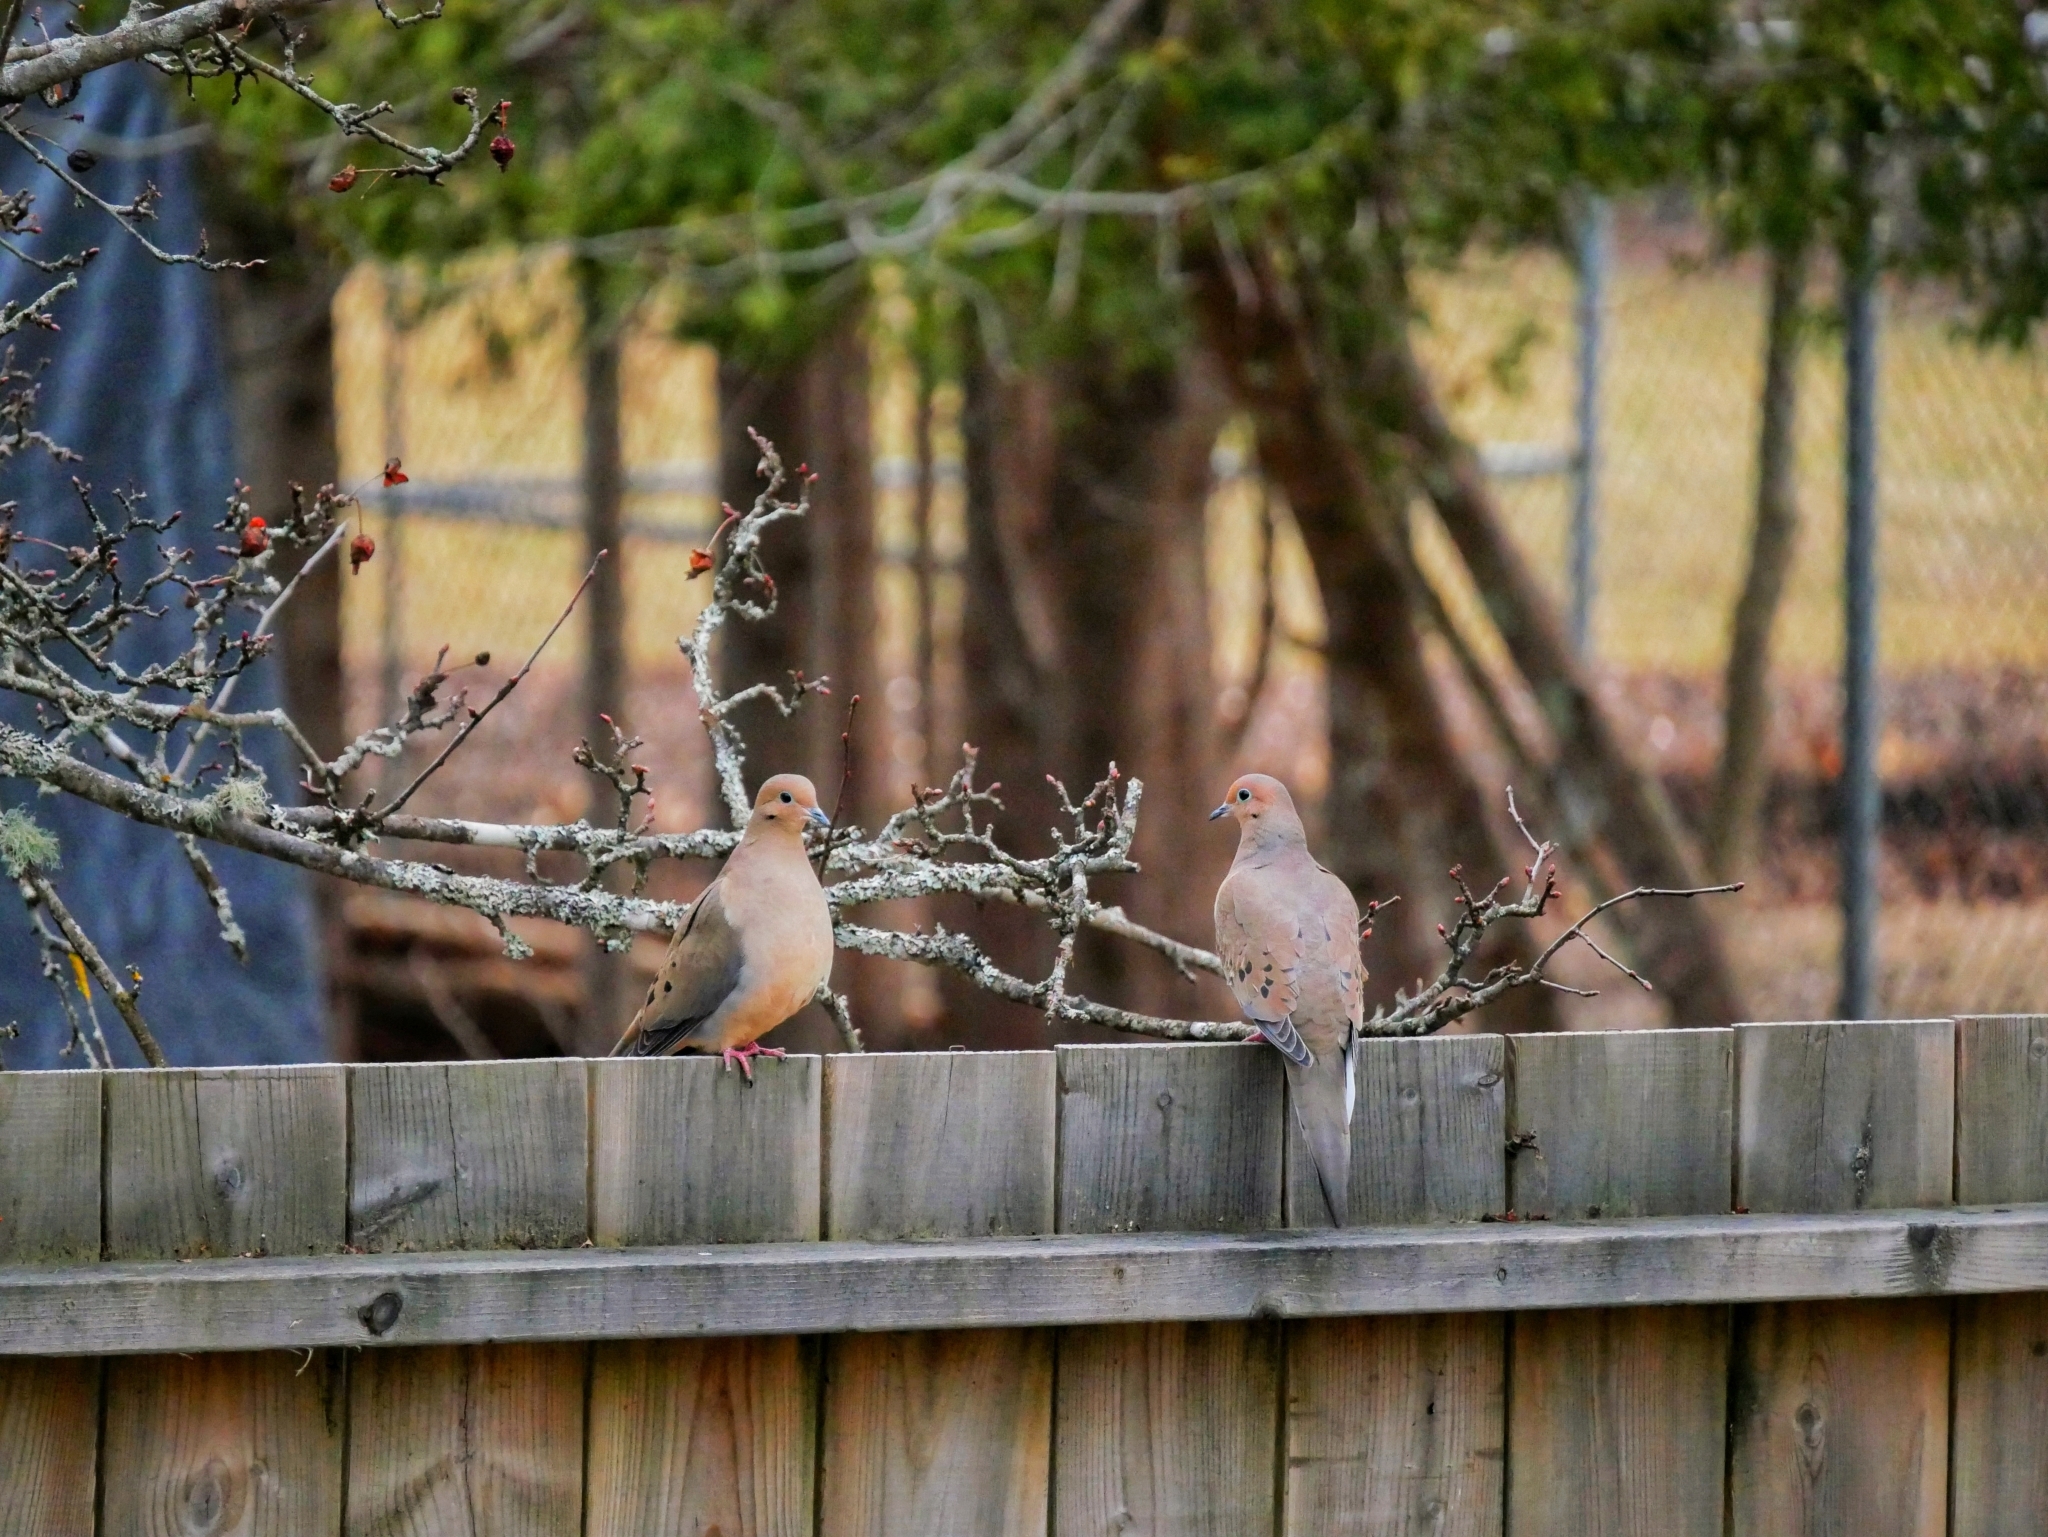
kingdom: Animalia
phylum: Chordata
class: Aves
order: Columbiformes
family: Columbidae
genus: Zenaida
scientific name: Zenaida macroura
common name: Mourning dove
